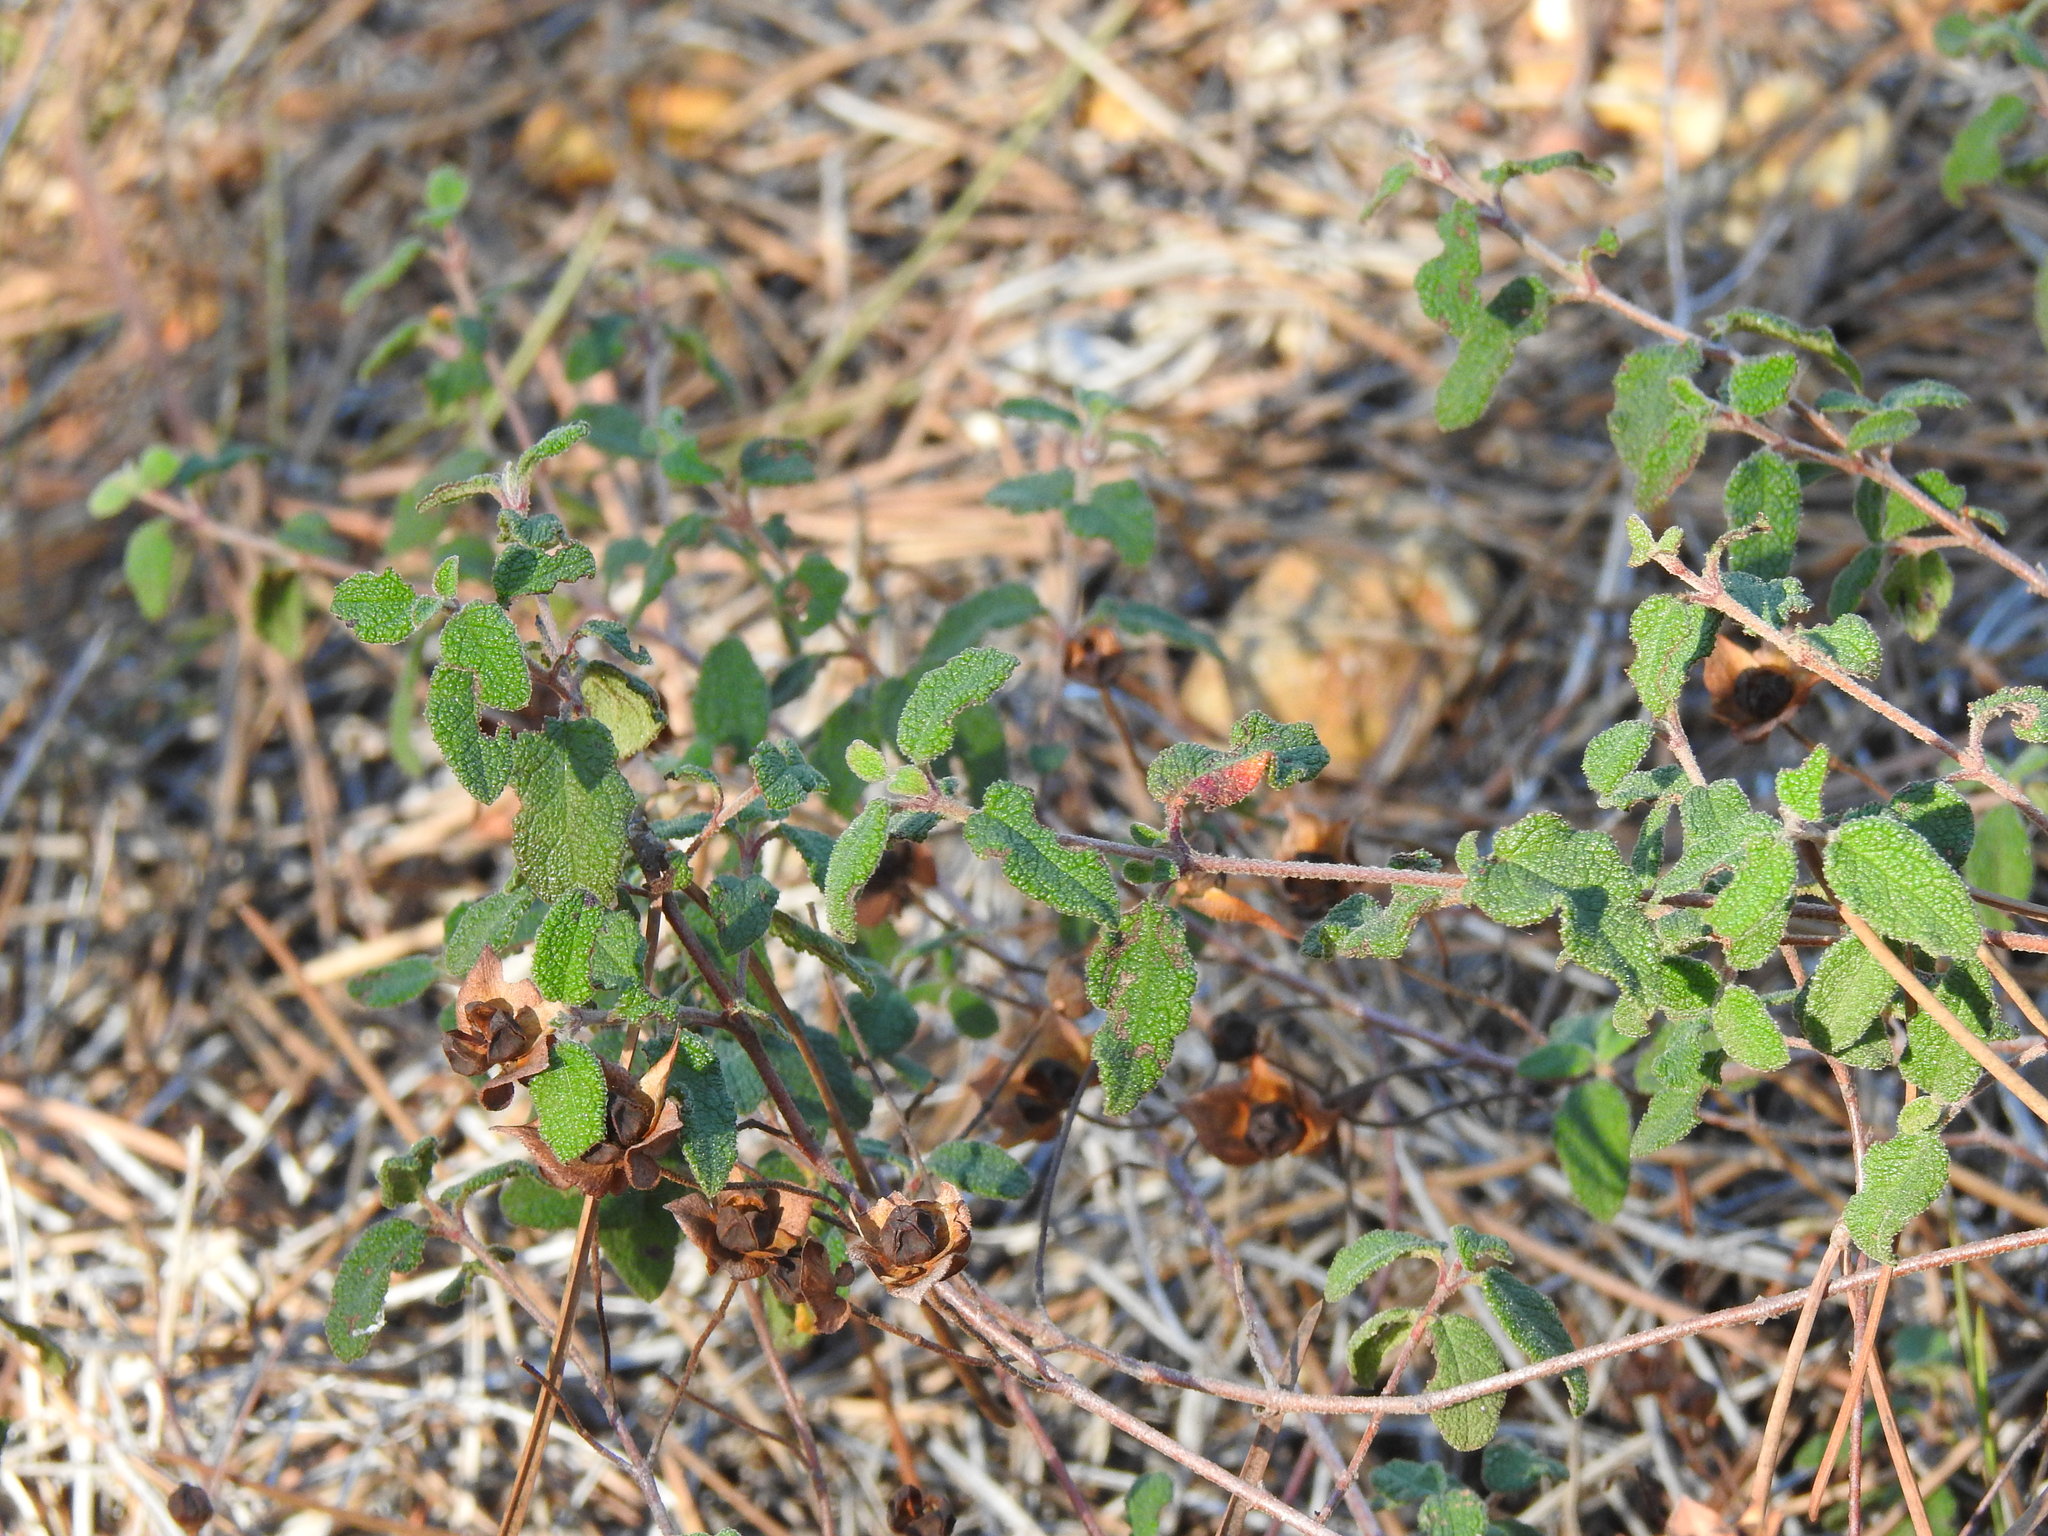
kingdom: Plantae
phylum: Tracheophyta
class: Magnoliopsida
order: Malvales
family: Cistaceae
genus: Cistus
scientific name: Cistus salviifolius
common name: Salvia cistus
